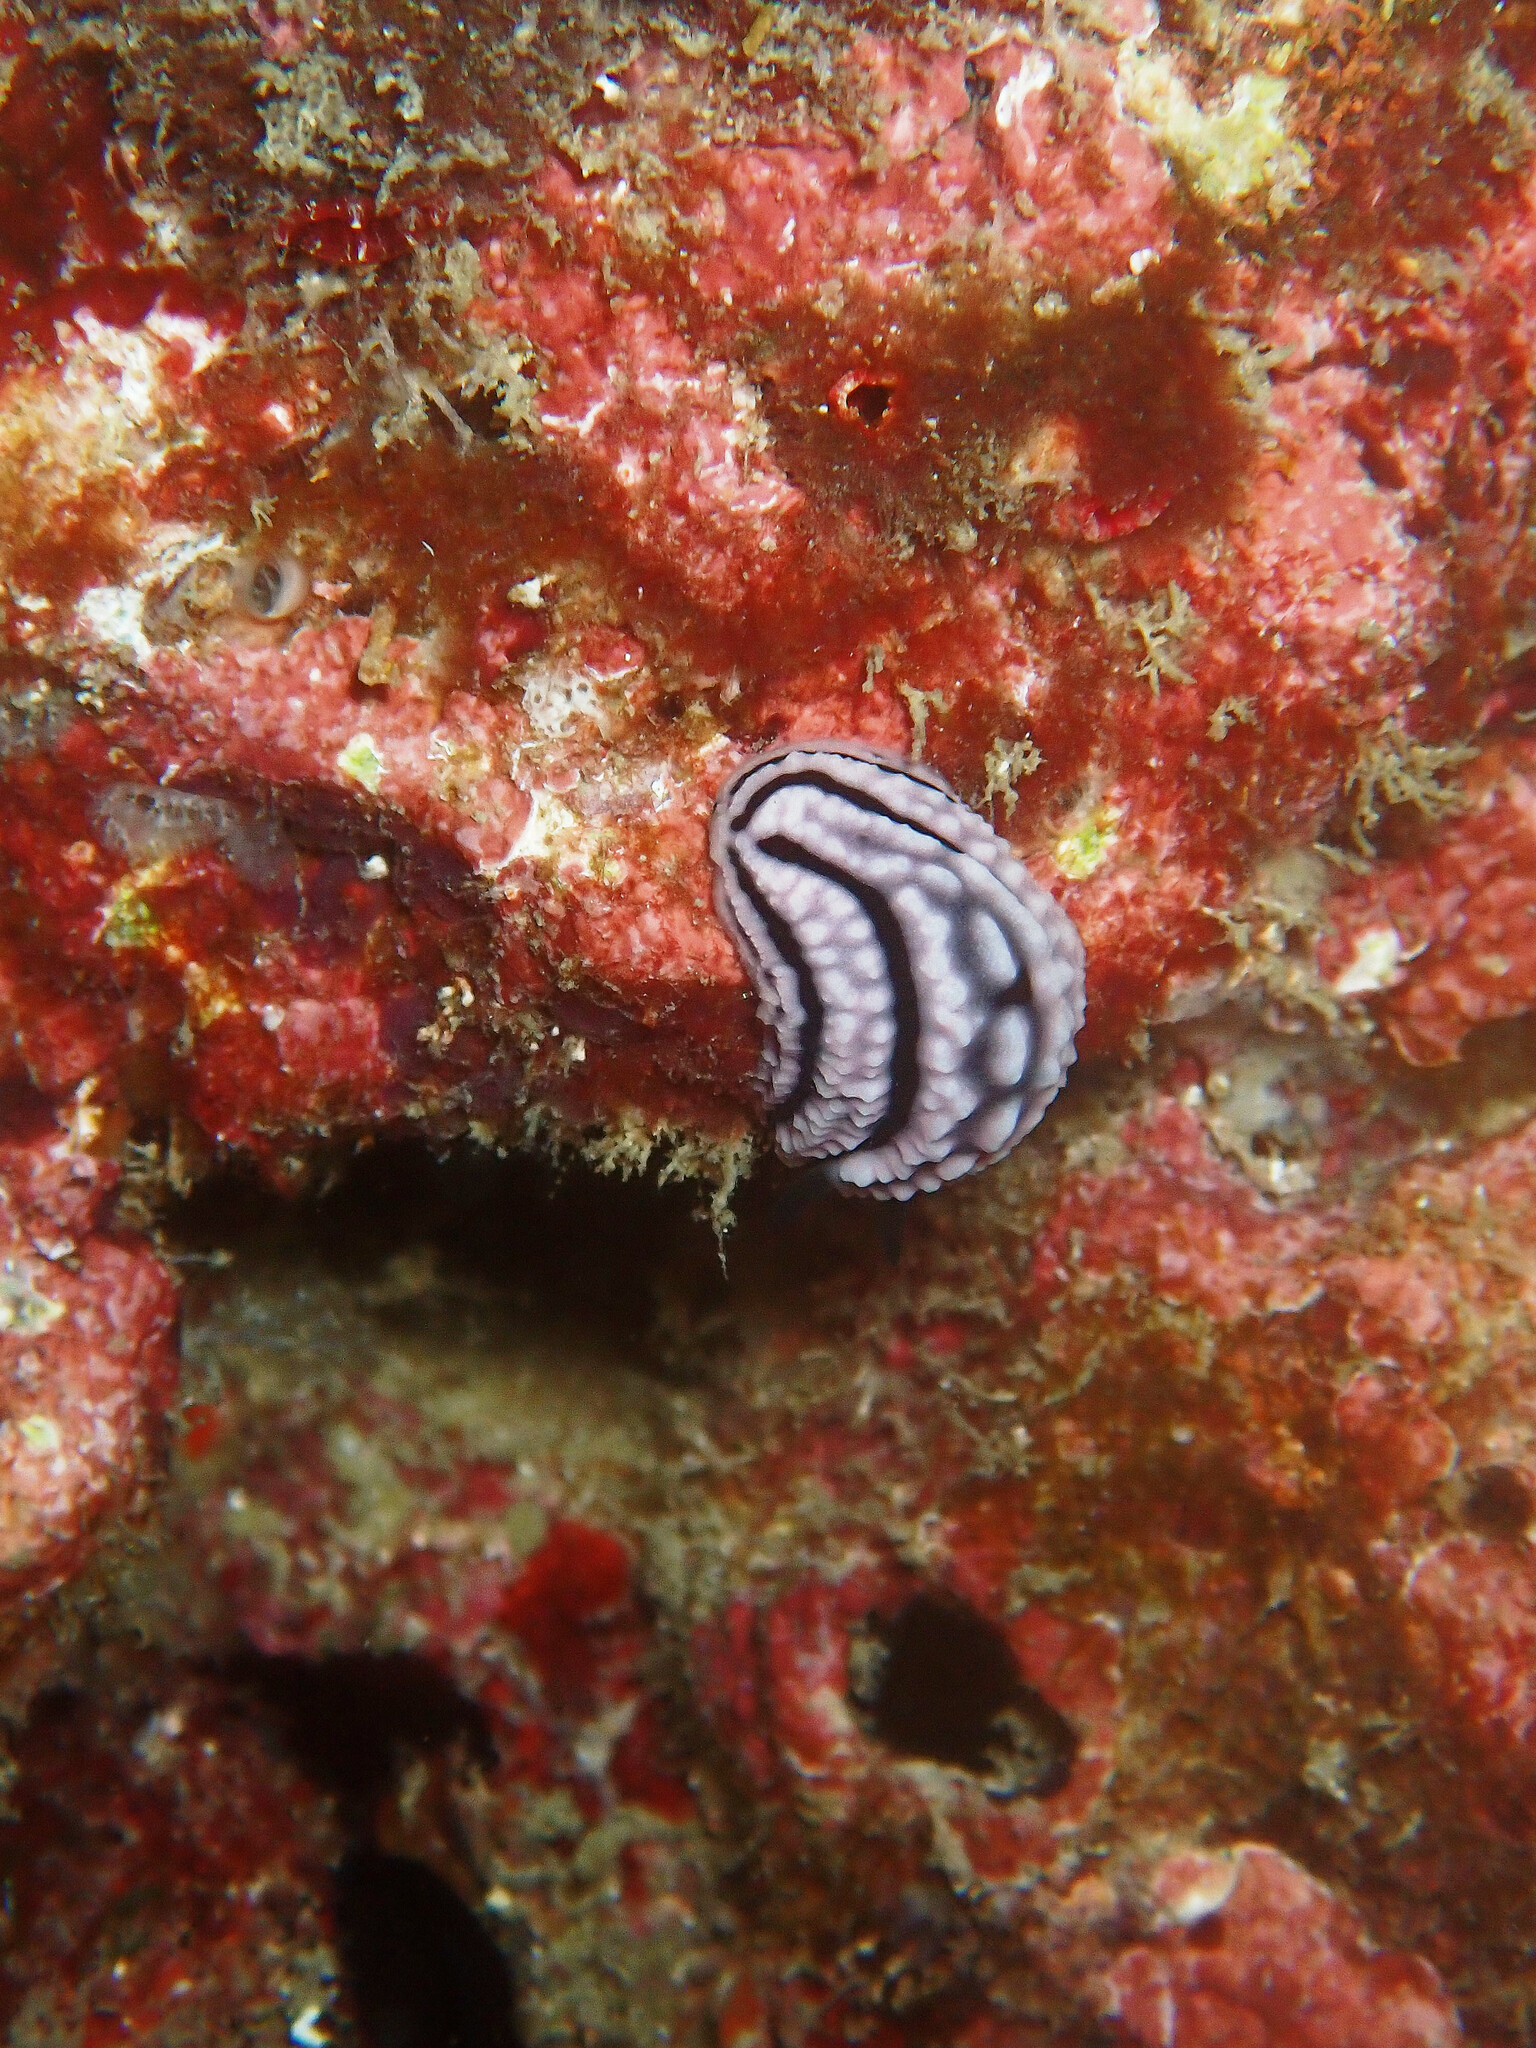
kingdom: Animalia
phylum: Mollusca
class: Gastropoda
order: Nudibranchia
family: Phyllidiidae
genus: Phyllidiella
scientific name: Phyllidiella zeylanica
